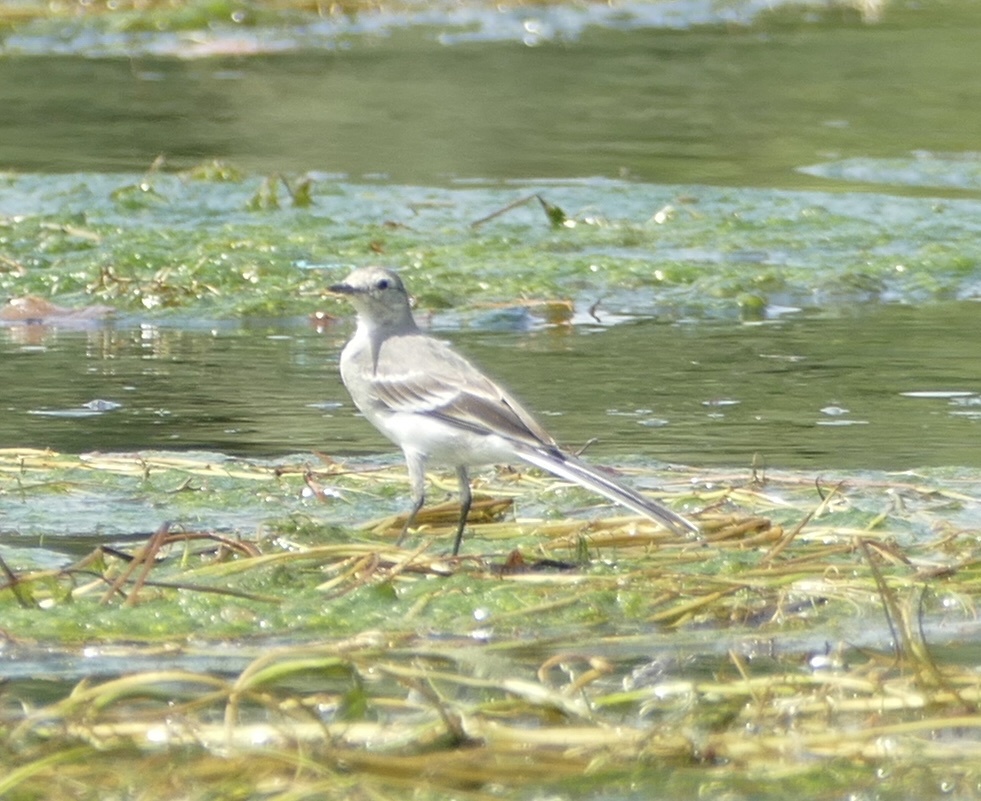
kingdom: Animalia
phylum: Chordata
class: Aves
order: Passeriformes
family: Motacillidae
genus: Motacilla
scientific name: Motacilla alba
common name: White wagtail
